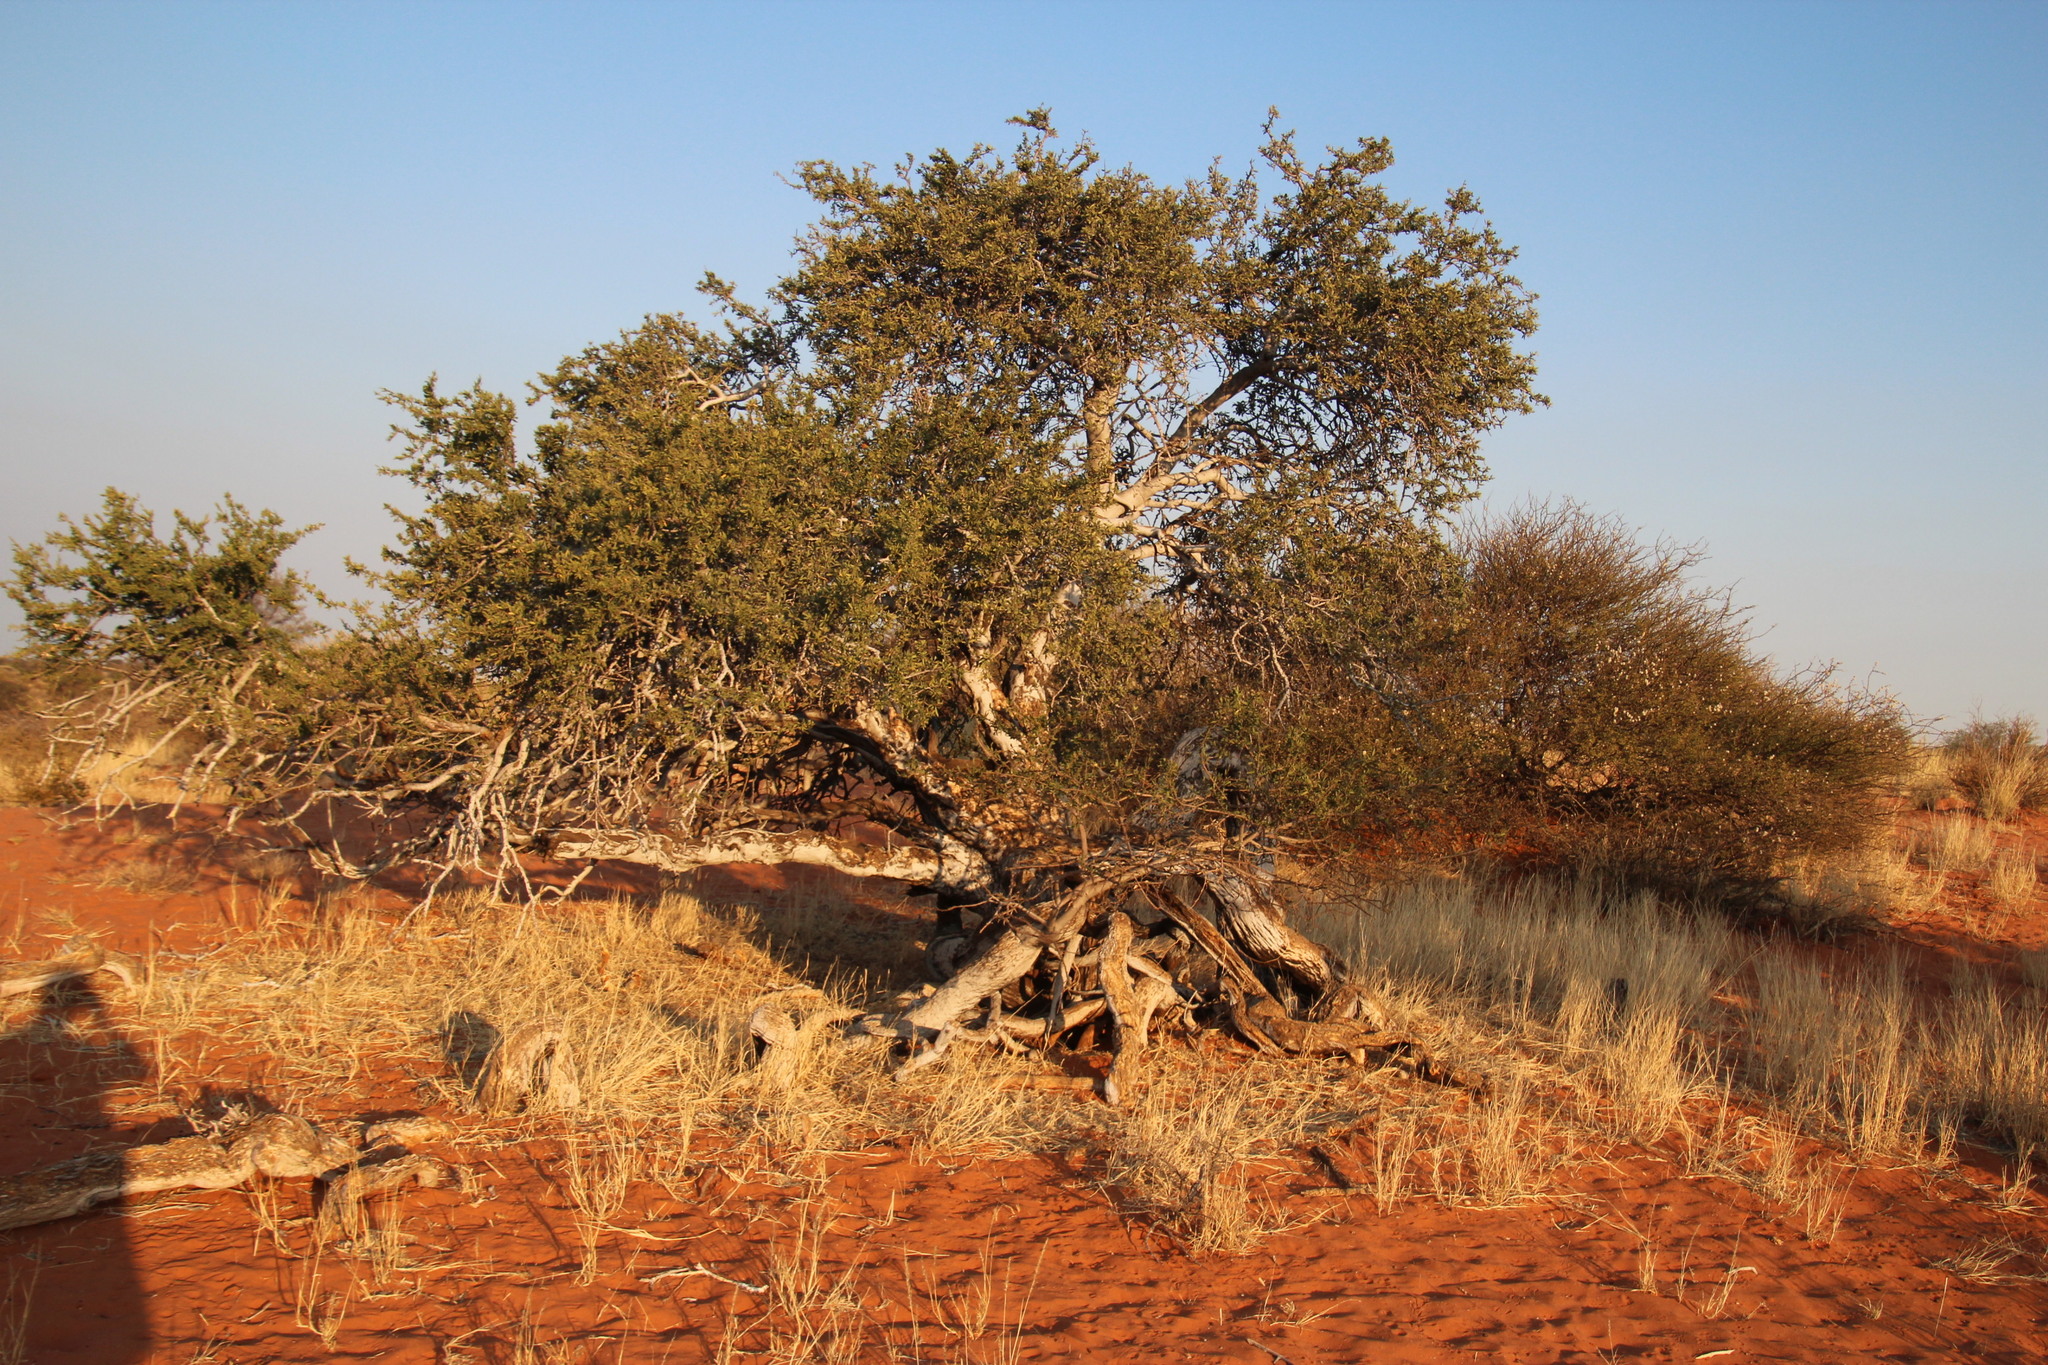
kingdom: Plantae
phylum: Tracheophyta
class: Magnoliopsida
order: Brassicales
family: Capparaceae
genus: Boscia
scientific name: Boscia albitrunca
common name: Caper bush
